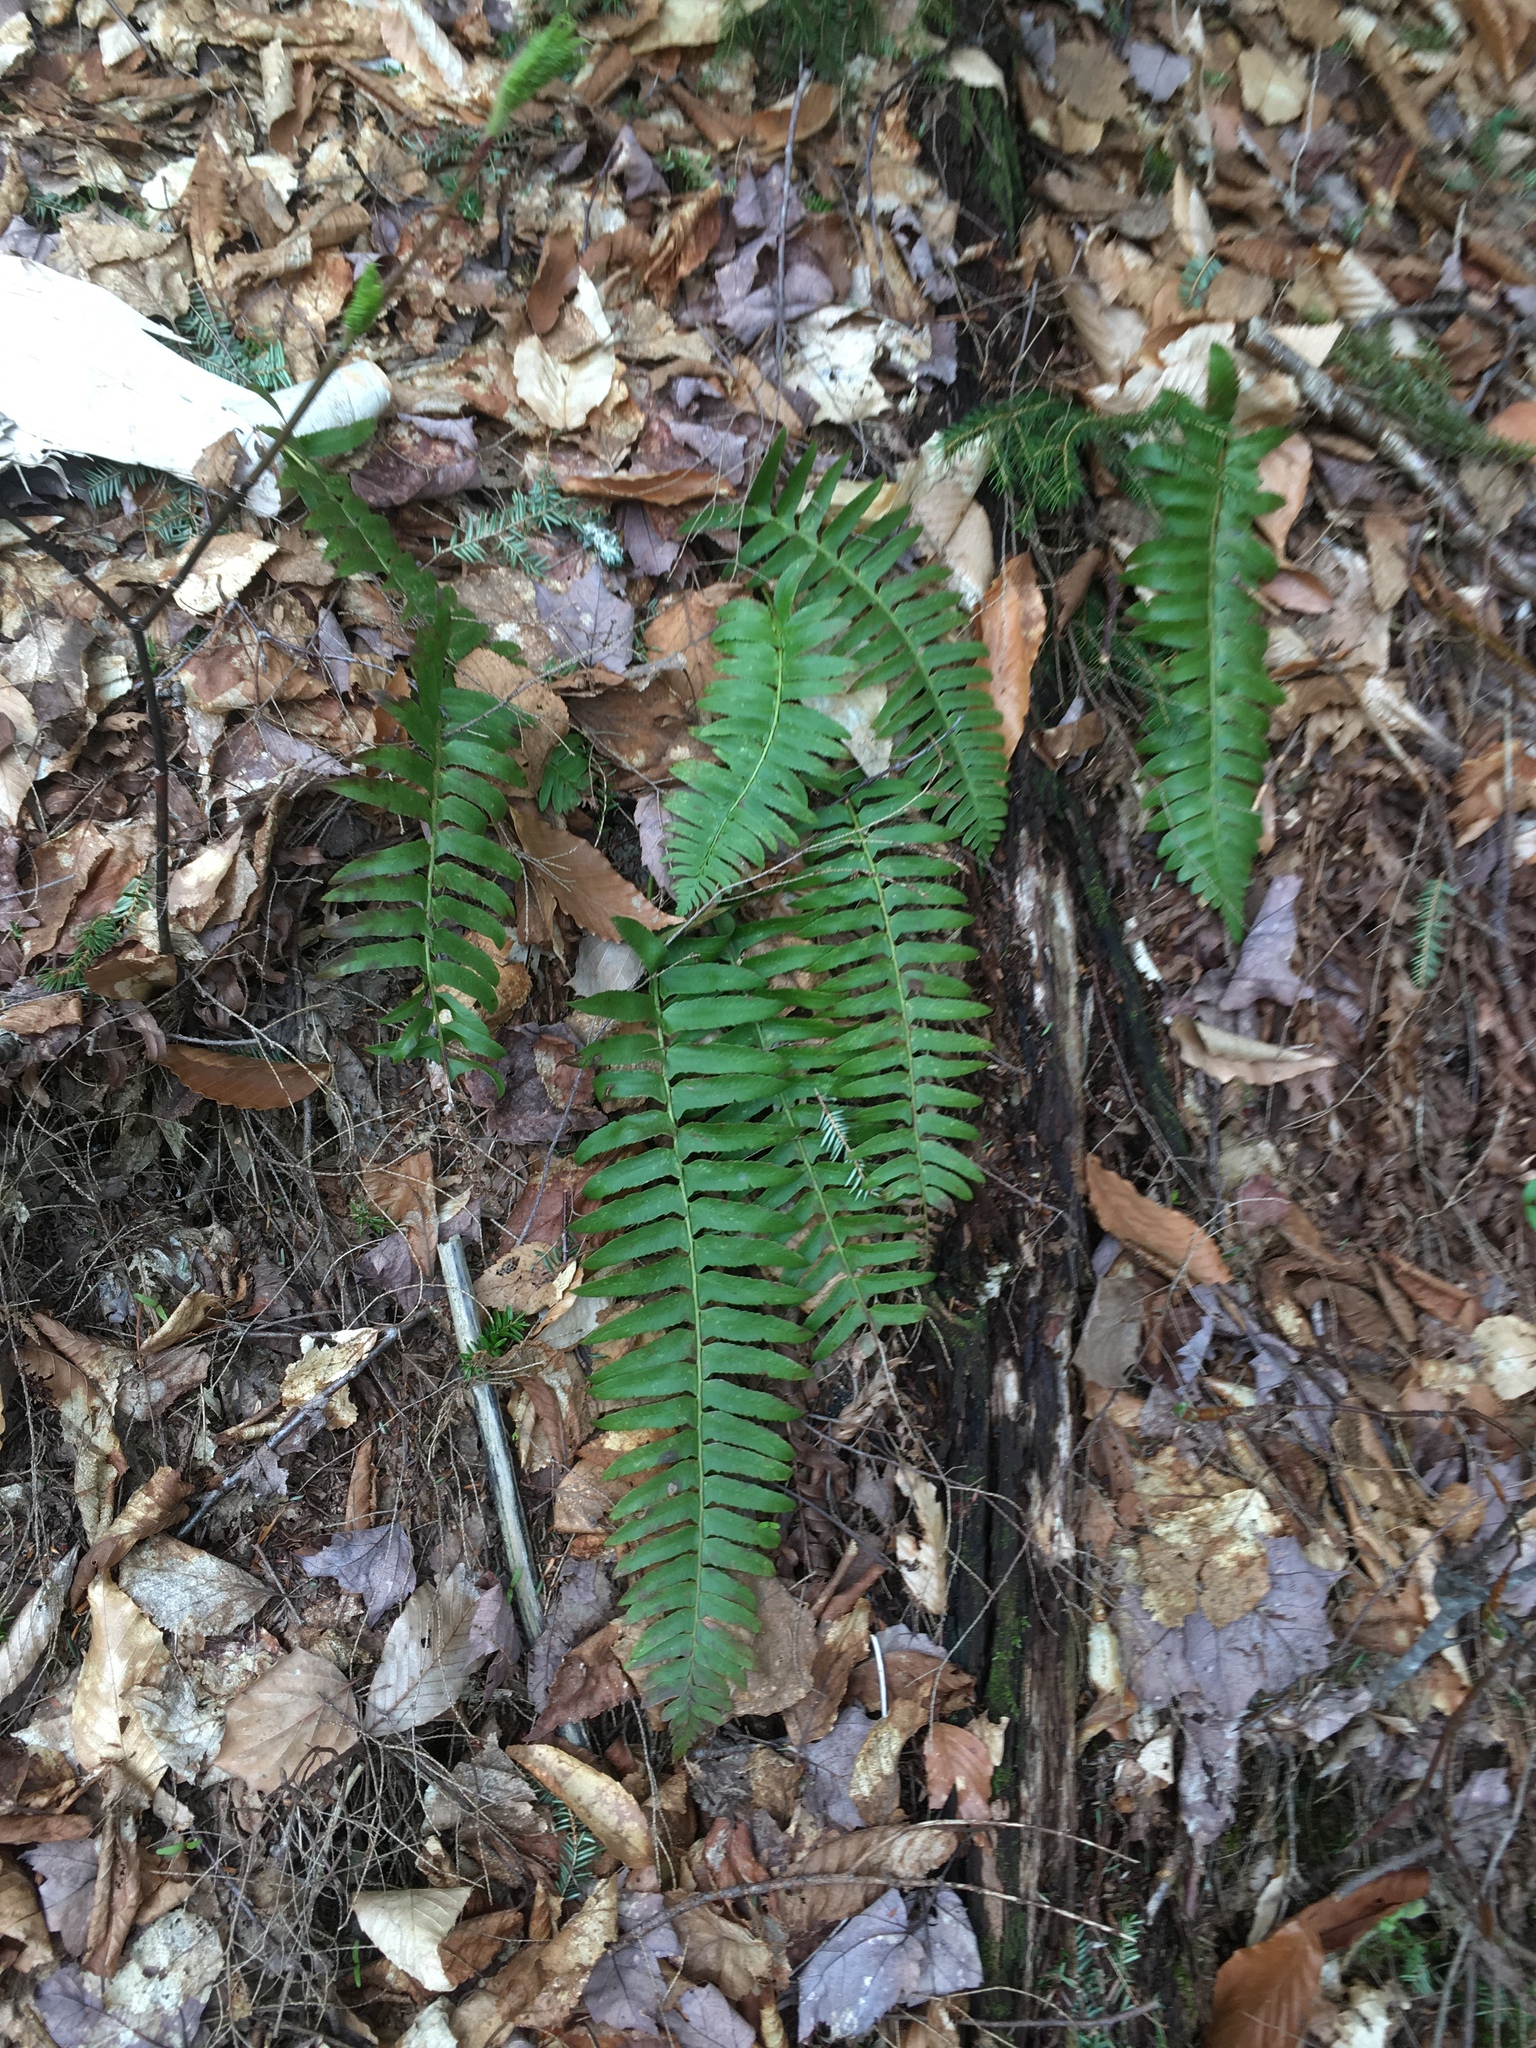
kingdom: Plantae
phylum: Tracheophyta
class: Polypodiopsida
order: Polypodiales
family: Dryopteridaceae
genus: Polystichum
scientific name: Polystichum acrostichoides
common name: Christmas fern
